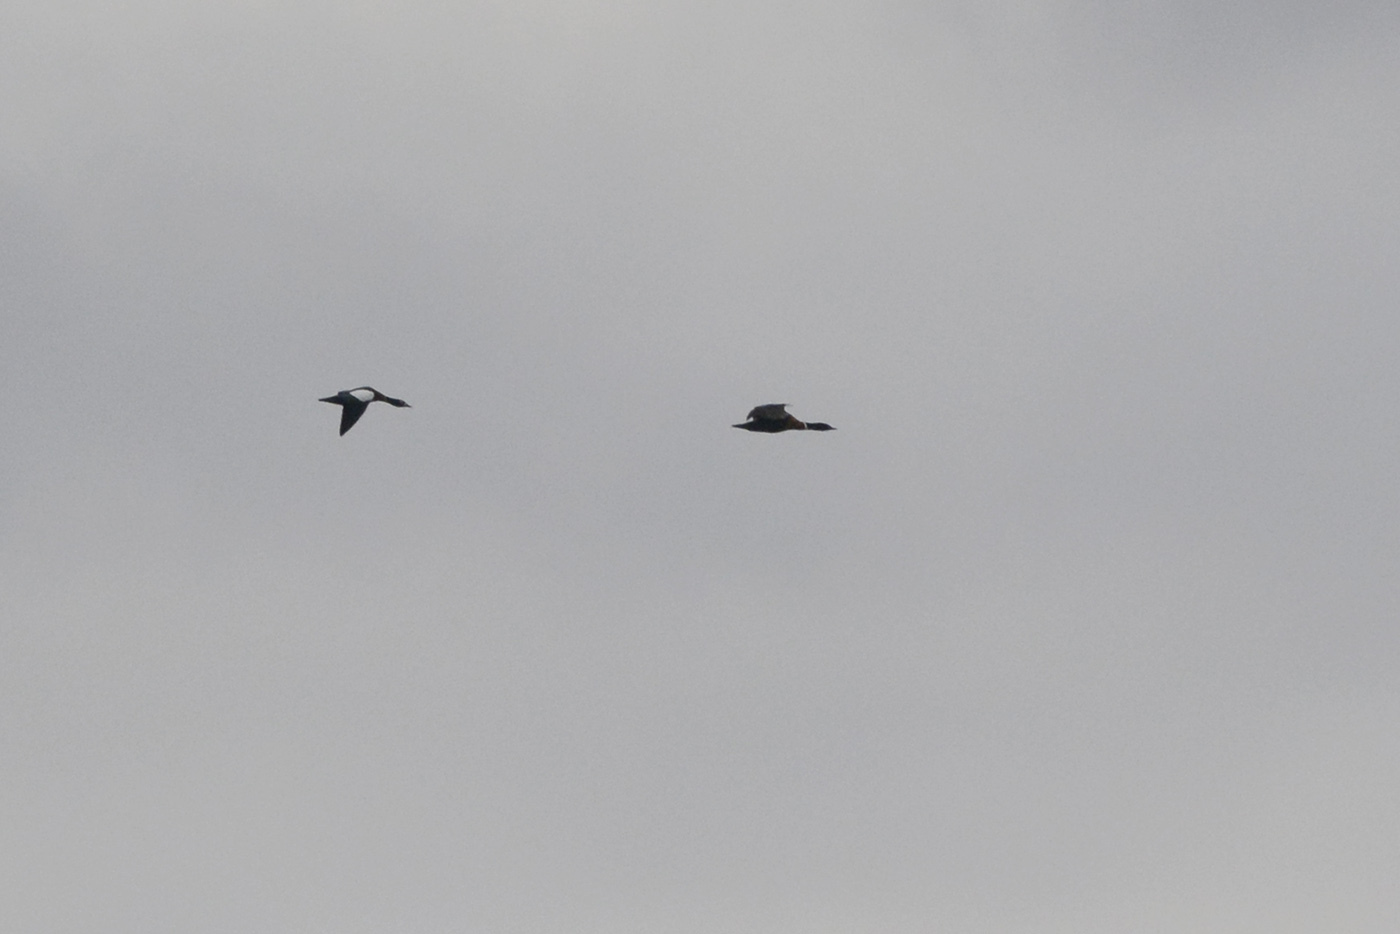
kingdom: Animalia
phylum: Chordata
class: Aves
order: Anseriformes
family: Anatidae
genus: Tadorna
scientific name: Tadorna tadornoides
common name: Australian shelduck
